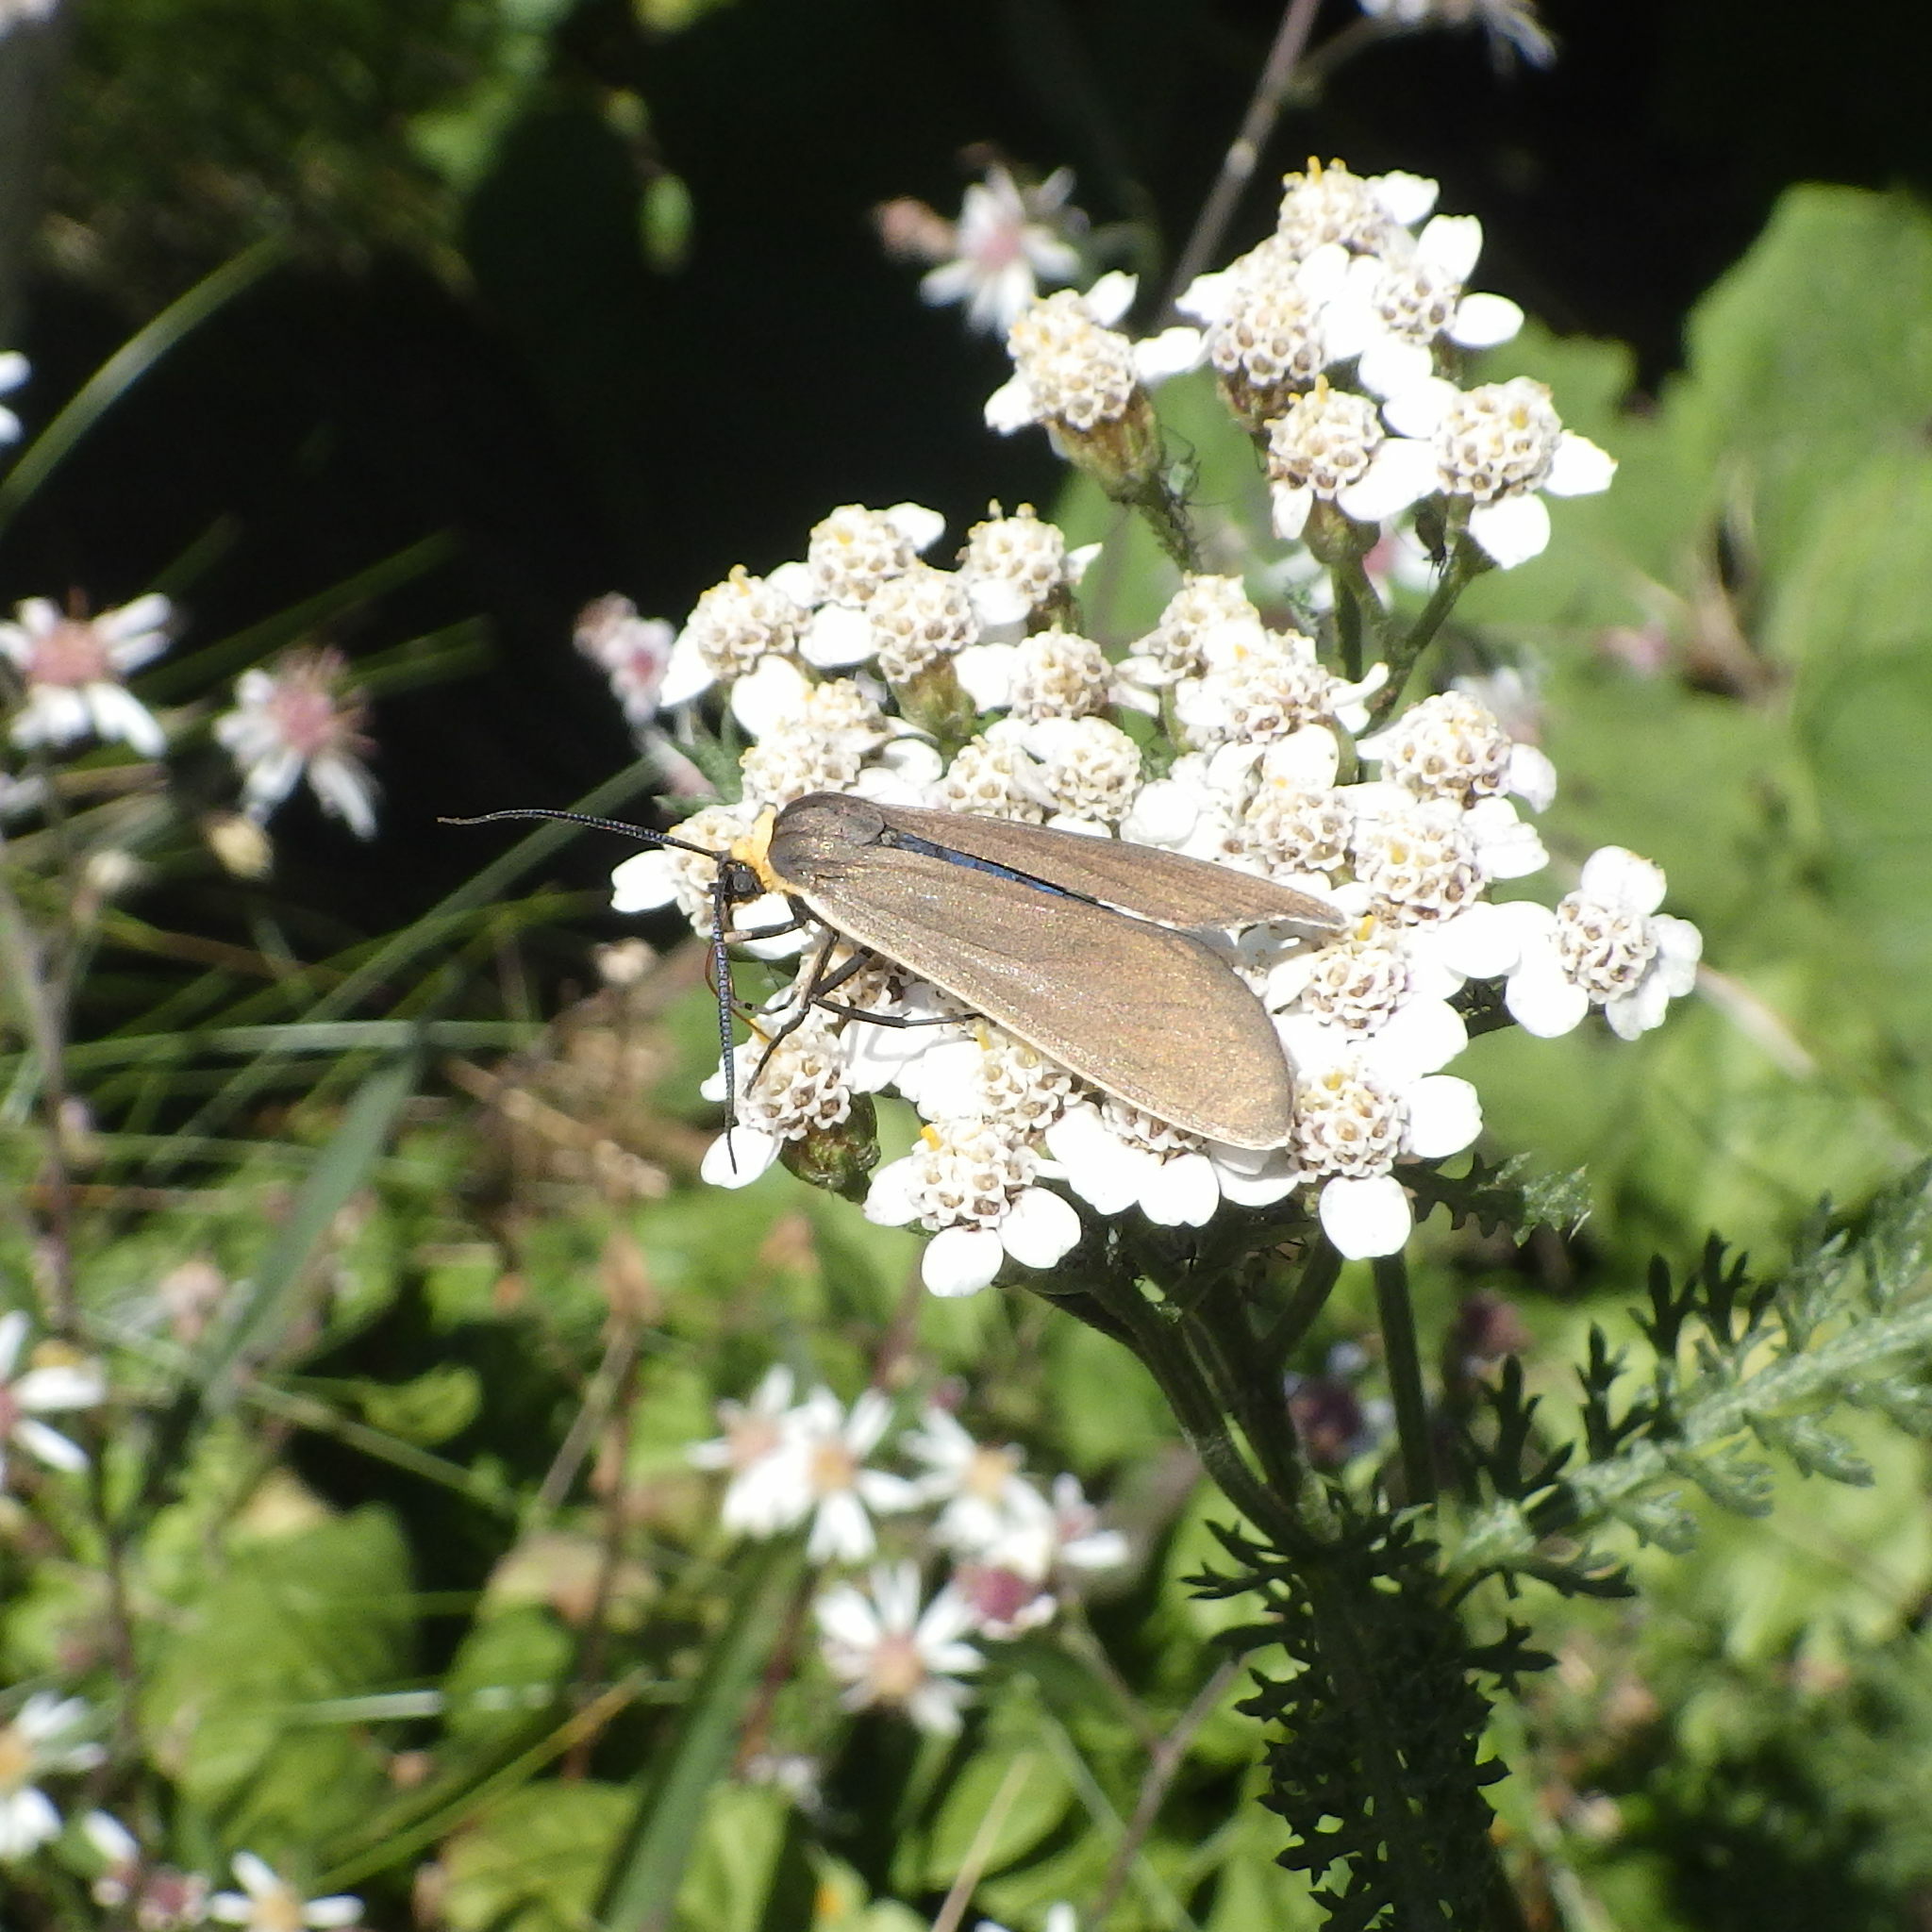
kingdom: Animalia
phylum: Arthropoda
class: Insecta
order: Lepidoptera
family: Erebidae
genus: Cisseps
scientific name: Cisseps fulvicollis
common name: Yellow-collared scape moth
